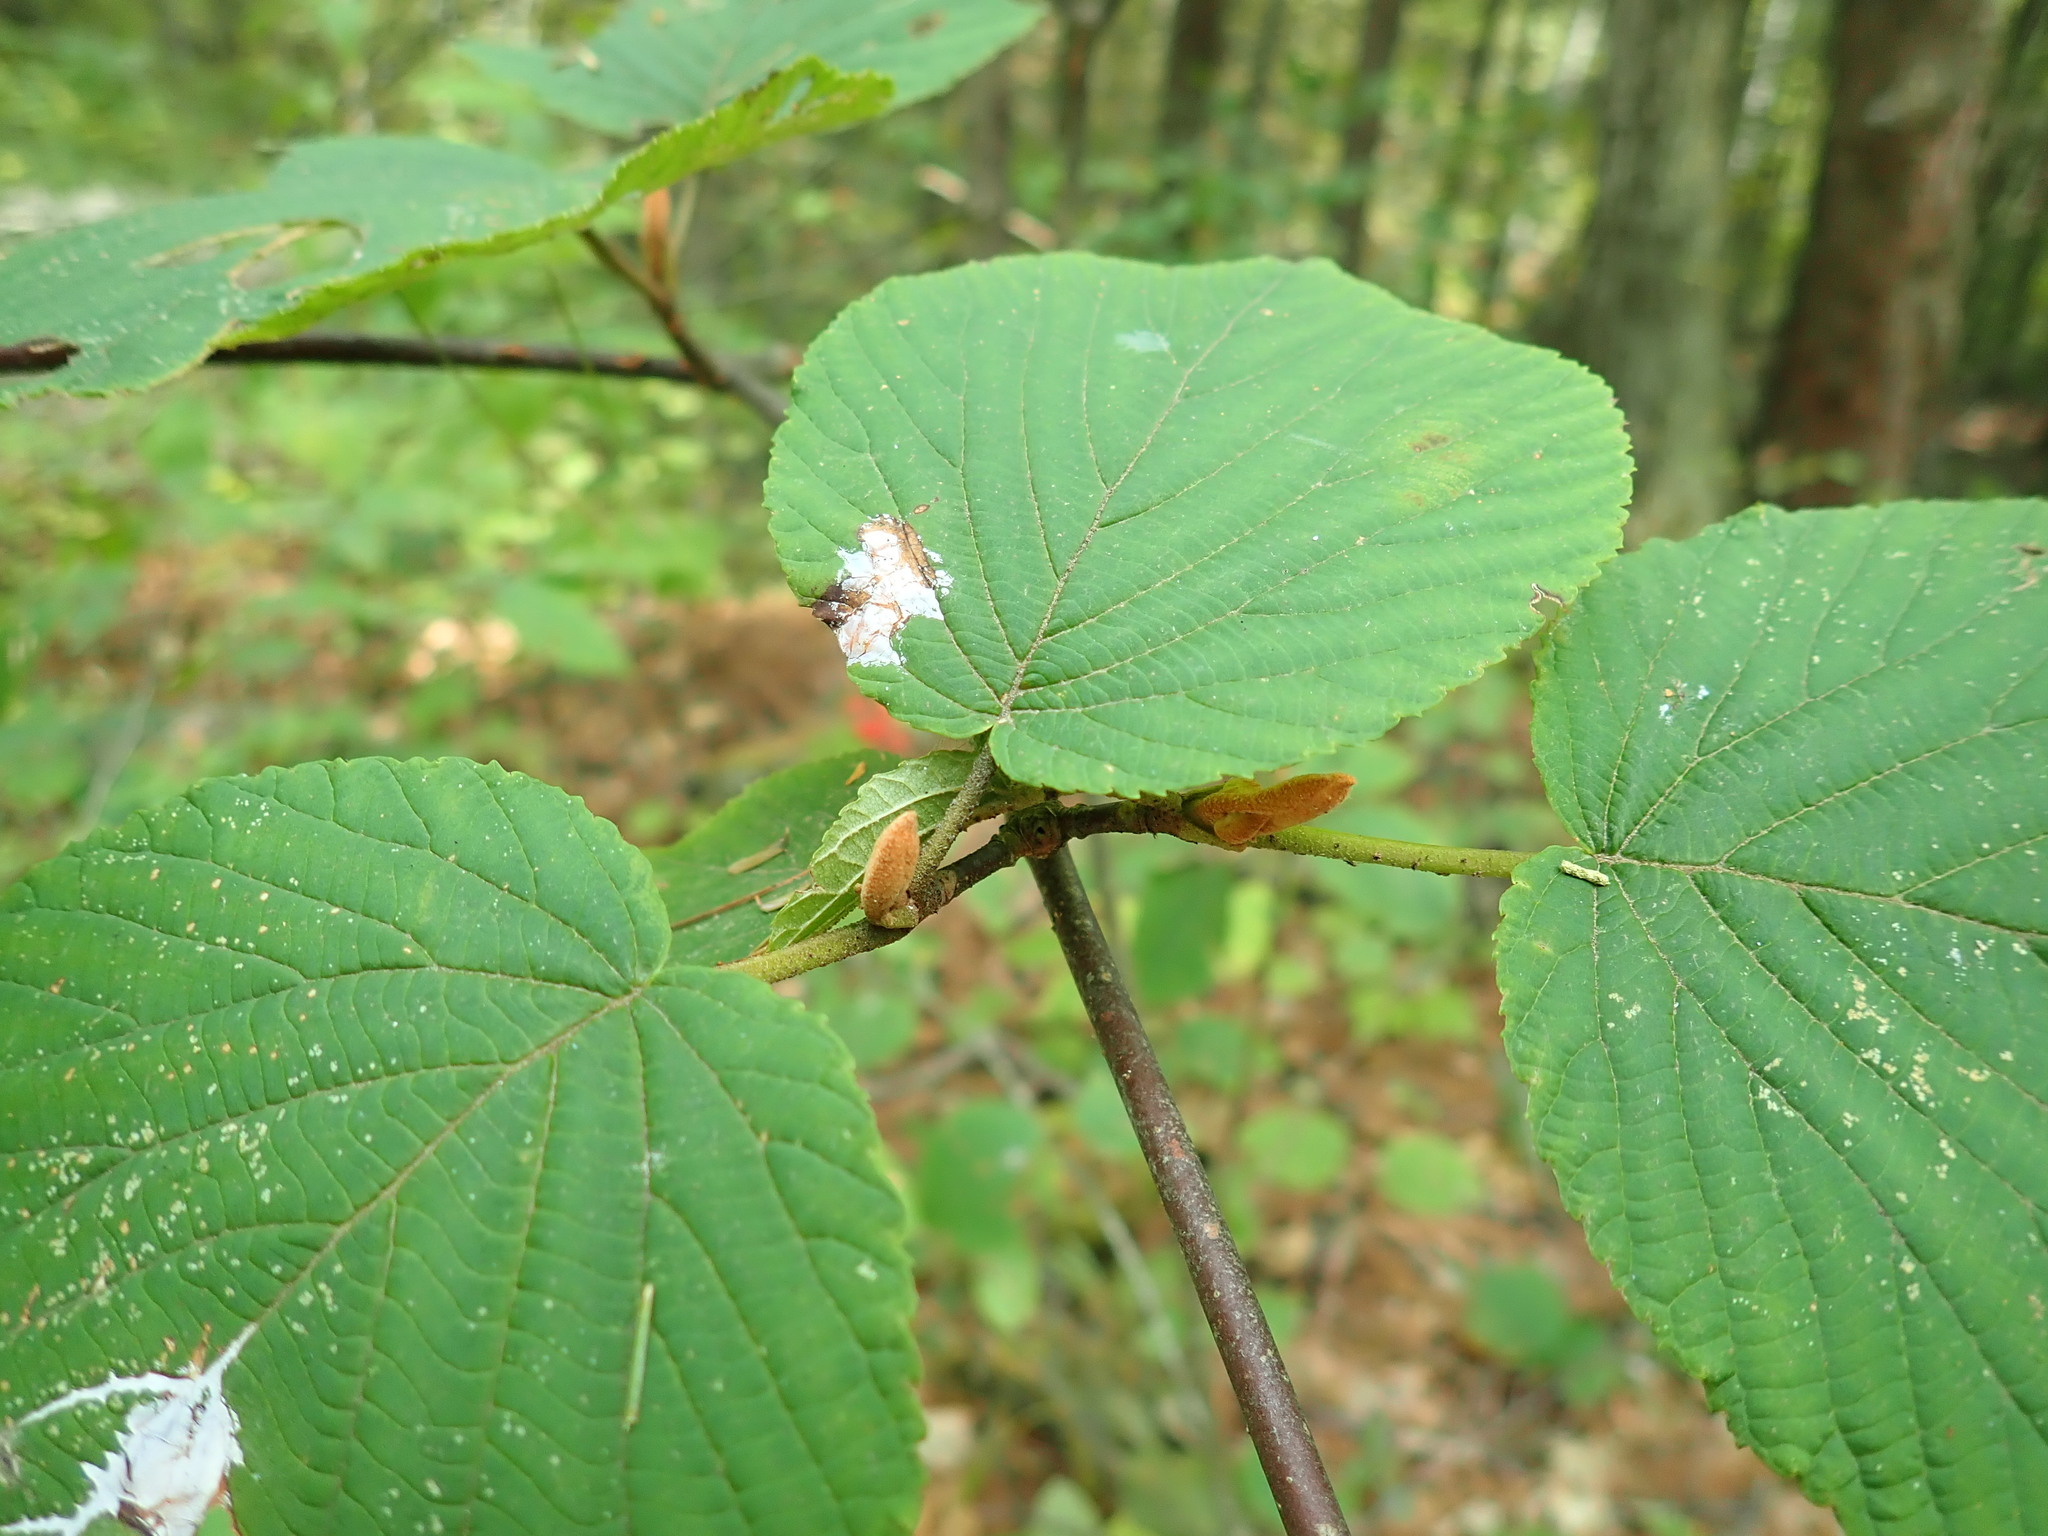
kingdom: Plantae
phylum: Tracheophyta
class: Magnoliopsida
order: Dipsacales
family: Viburnaceae
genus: Viburnum
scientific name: Viburnum lantanoides
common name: Hobblebush
